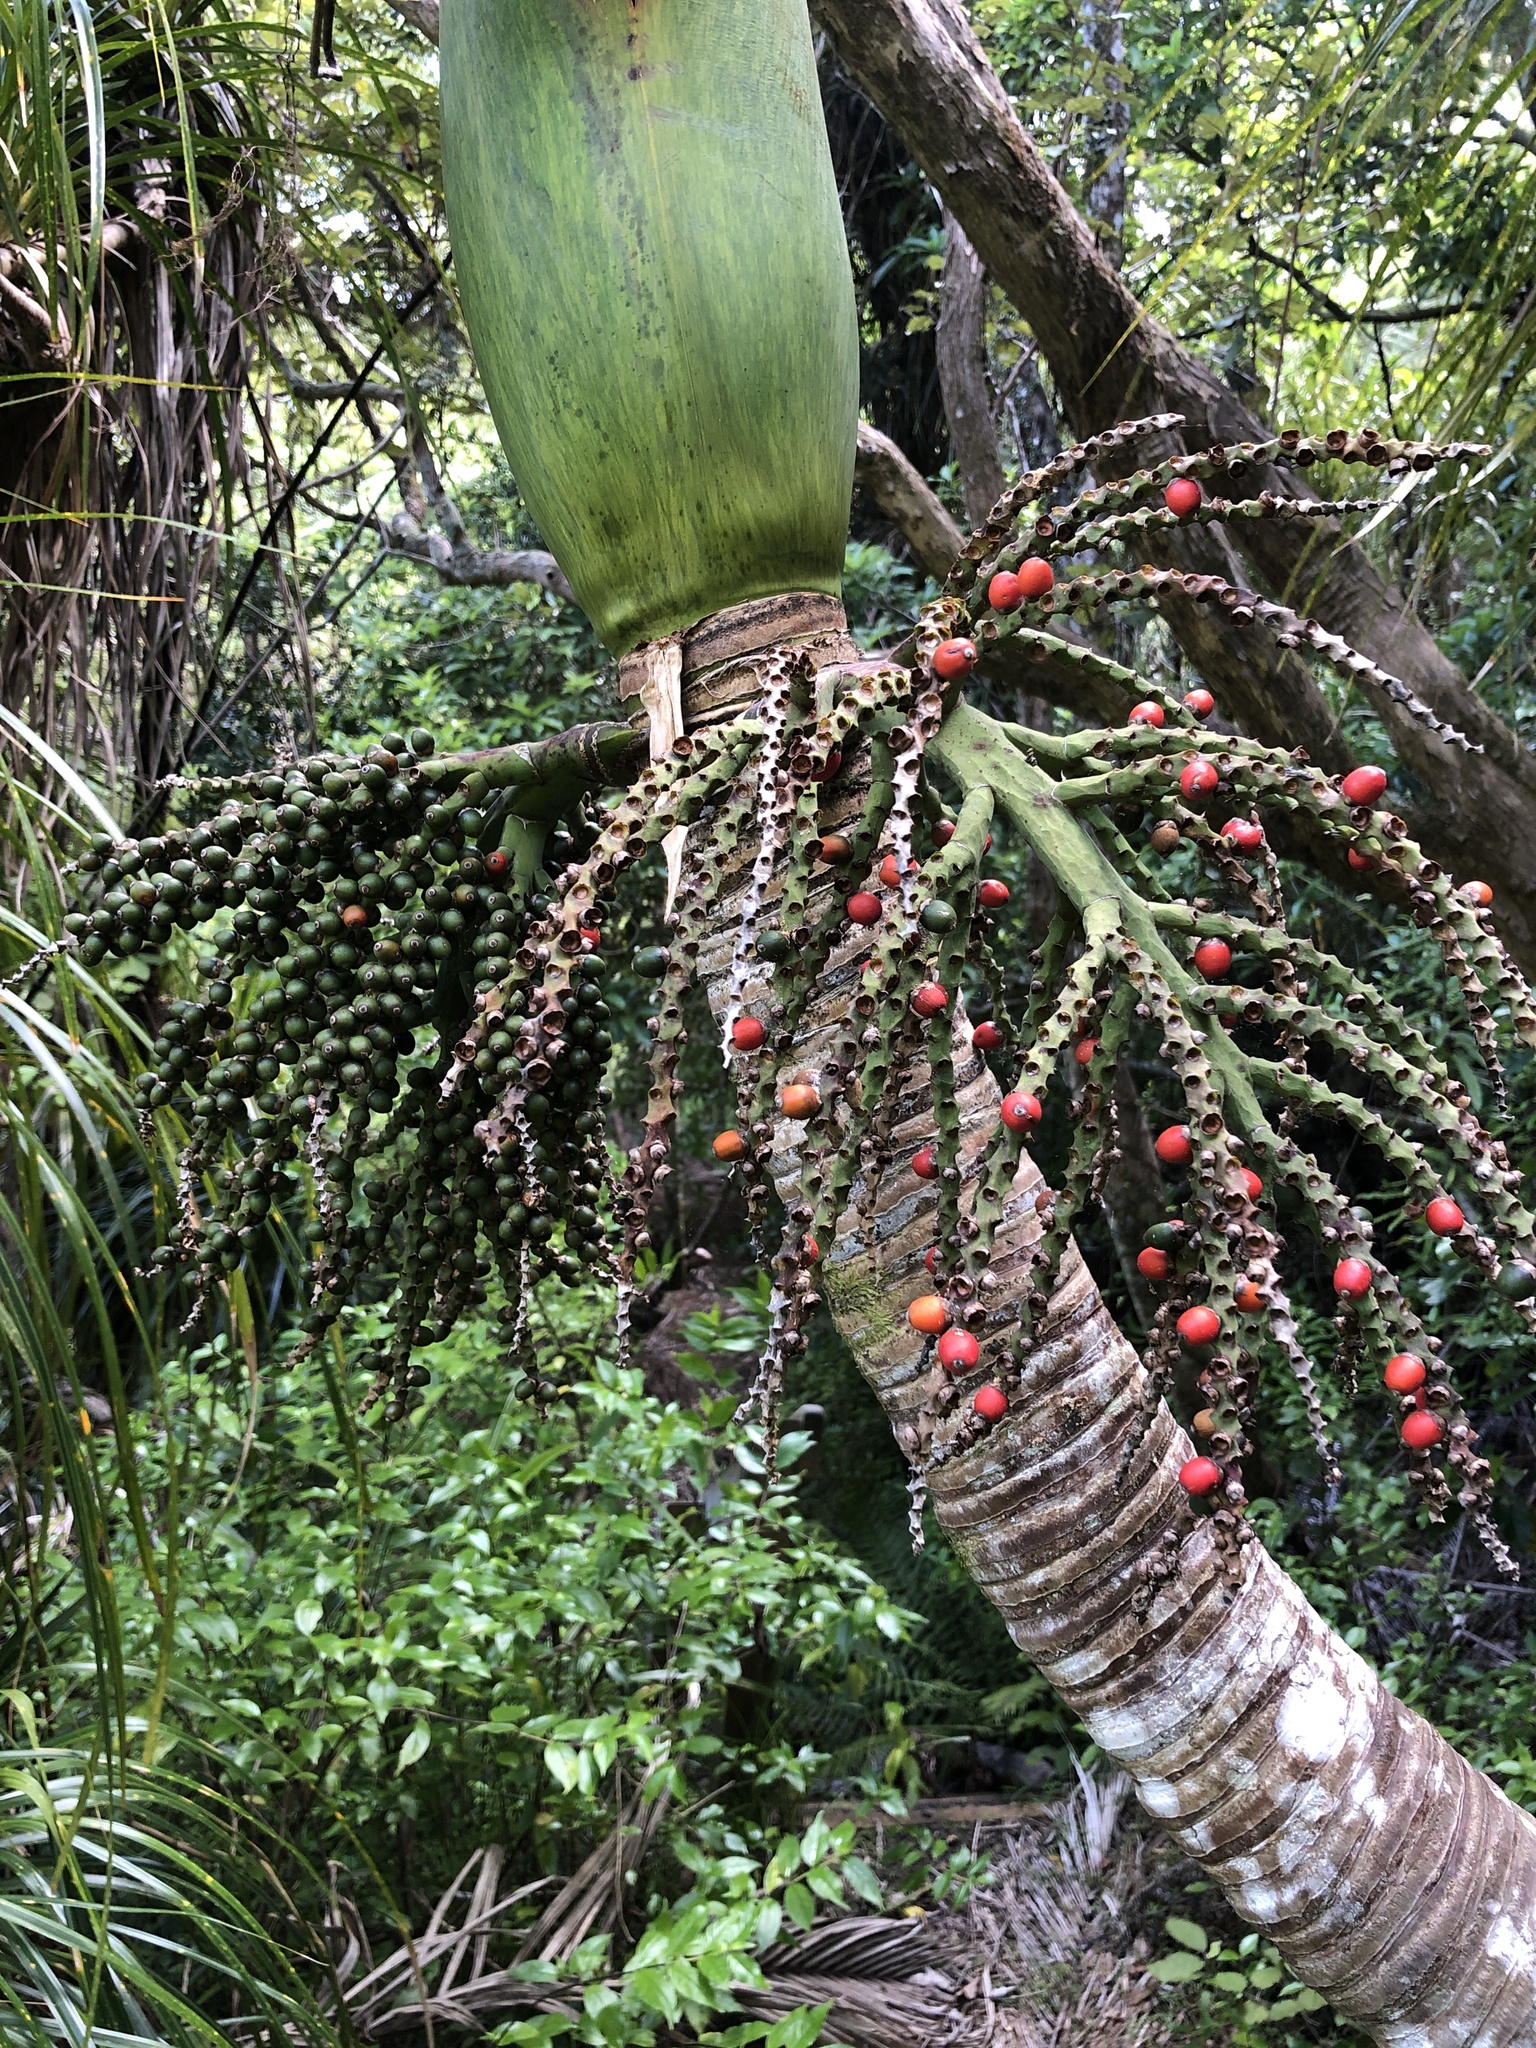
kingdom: Plantae
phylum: Tracheophyta
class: Liliopsida
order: Arecales
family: Arecaceae
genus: Rhopalostylis
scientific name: Rhopalostylis sapida
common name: Feather-duster palm
